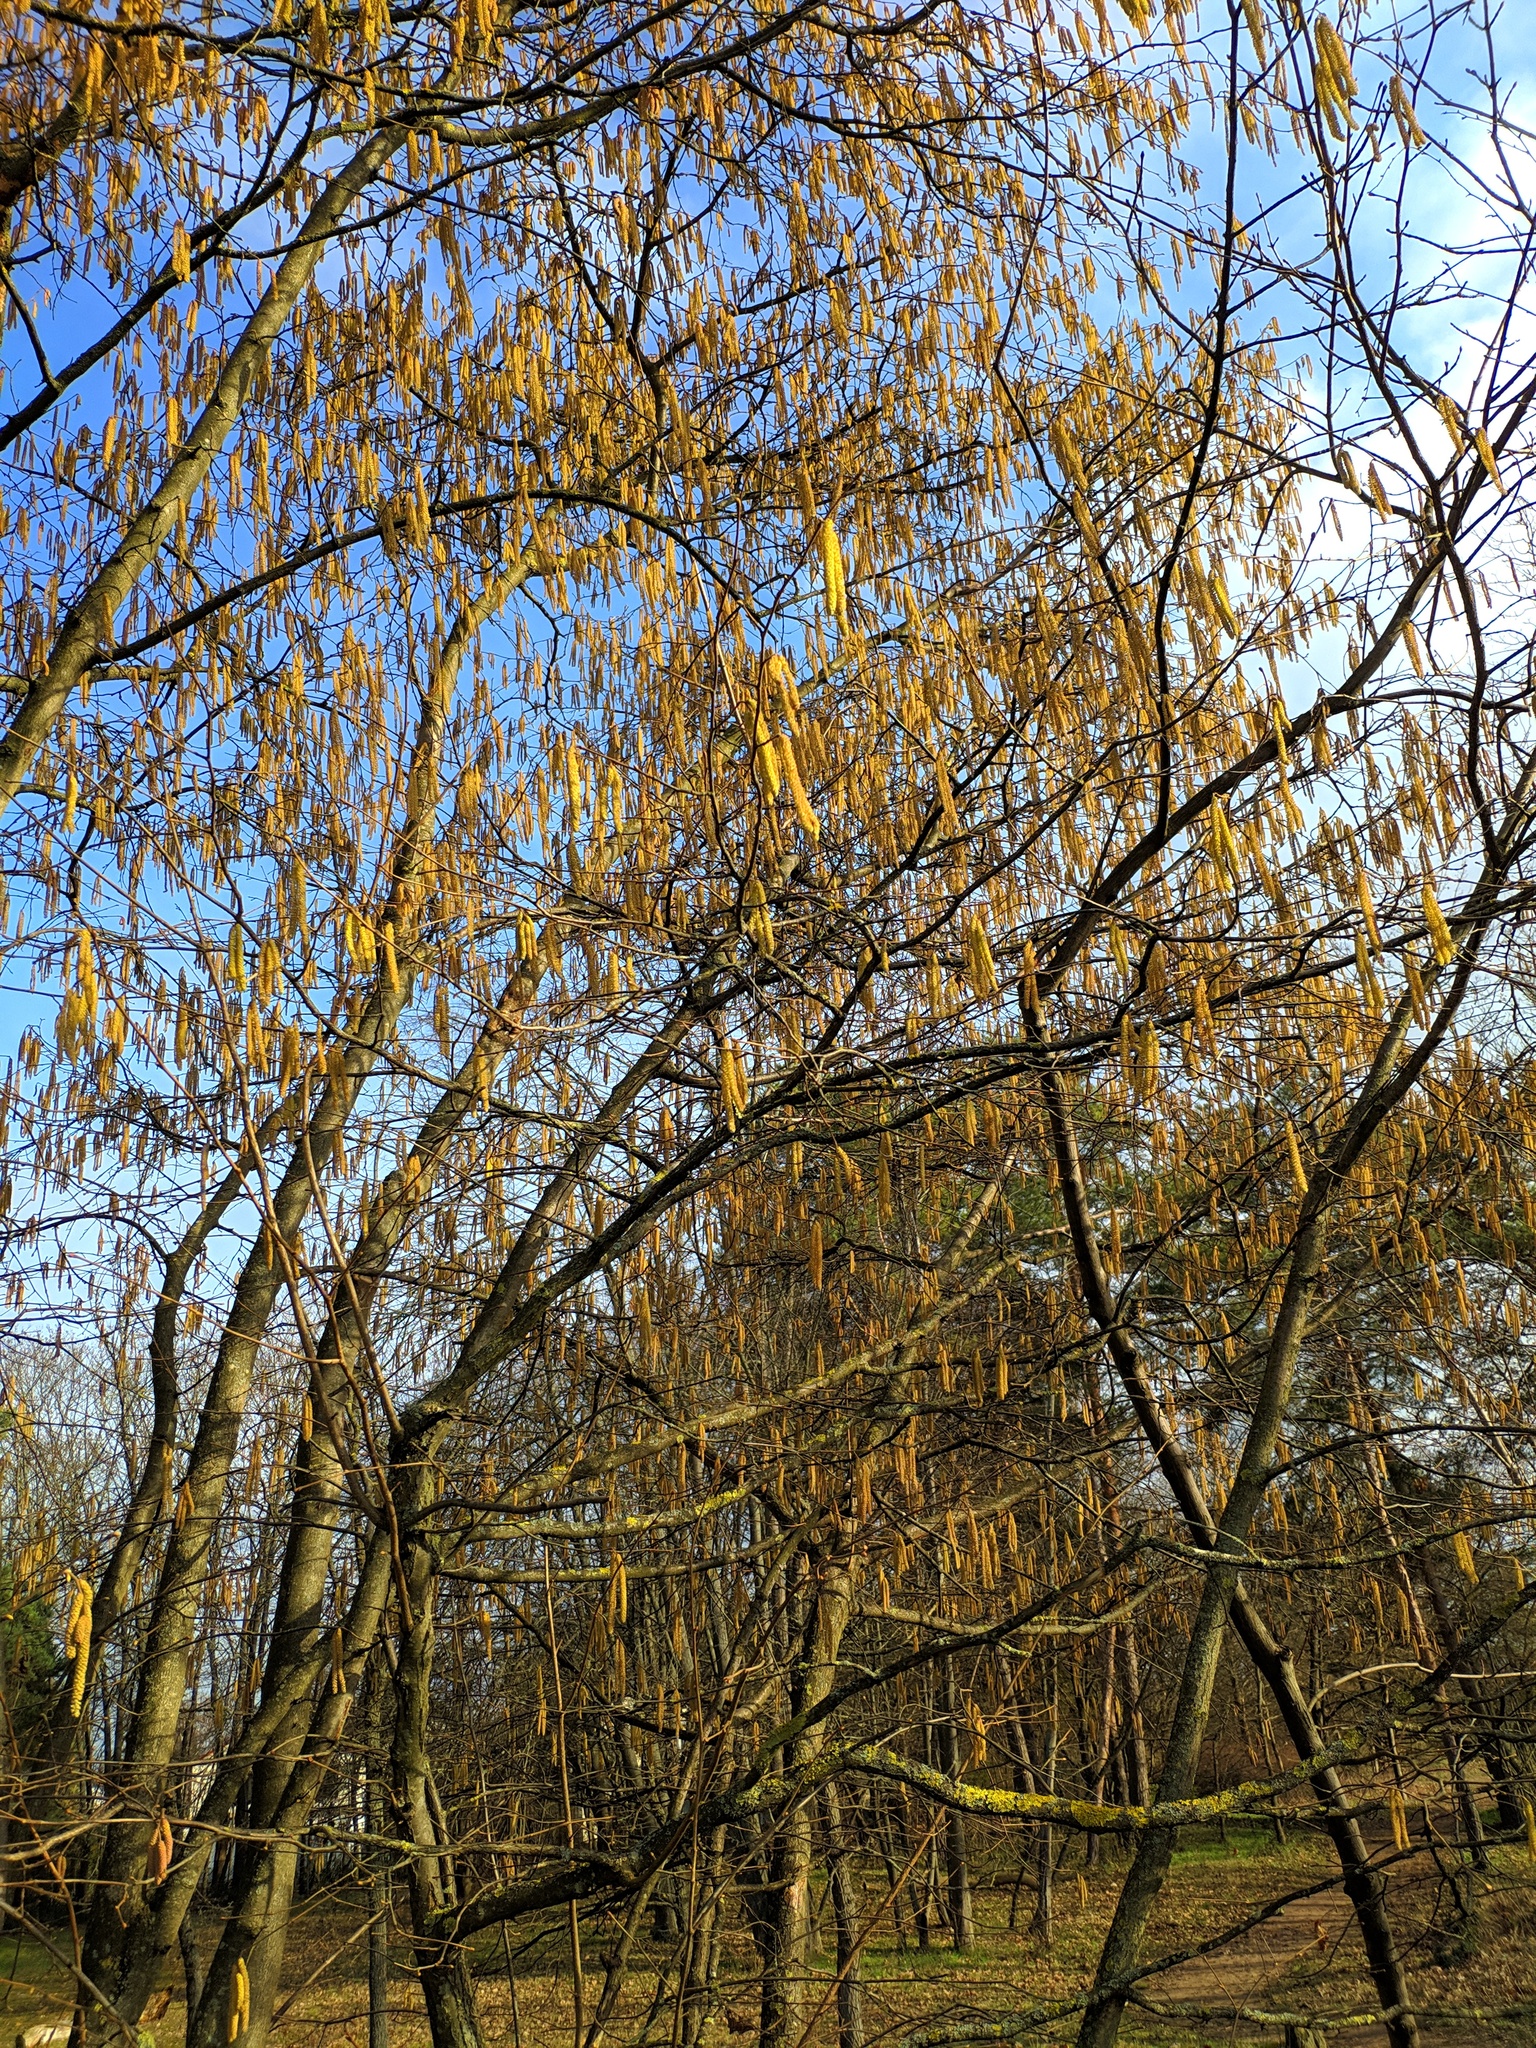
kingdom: Plantae
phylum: Tracheophyta
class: Magnoliopsida
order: Fagales
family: Betulaceae
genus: Corylus
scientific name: Corylus avellana
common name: European hazel
